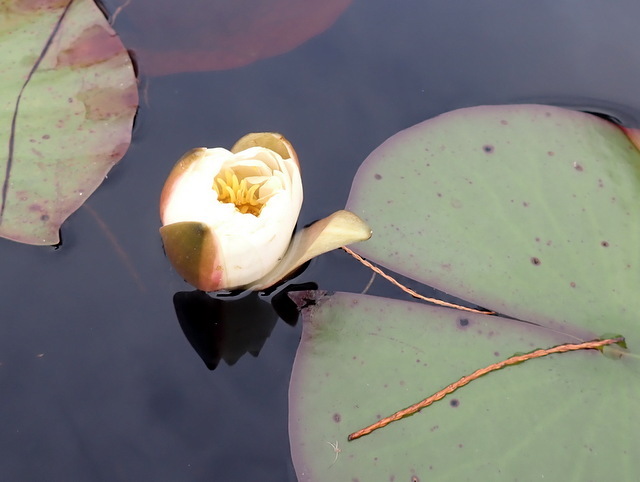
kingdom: Plantae
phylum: Tracheophyta
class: Magnoliopsida
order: Nymphaeales
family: Nymphaeaceae
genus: Nymphaea
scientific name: Nymphaea odorata
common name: Fragrant water-lily
